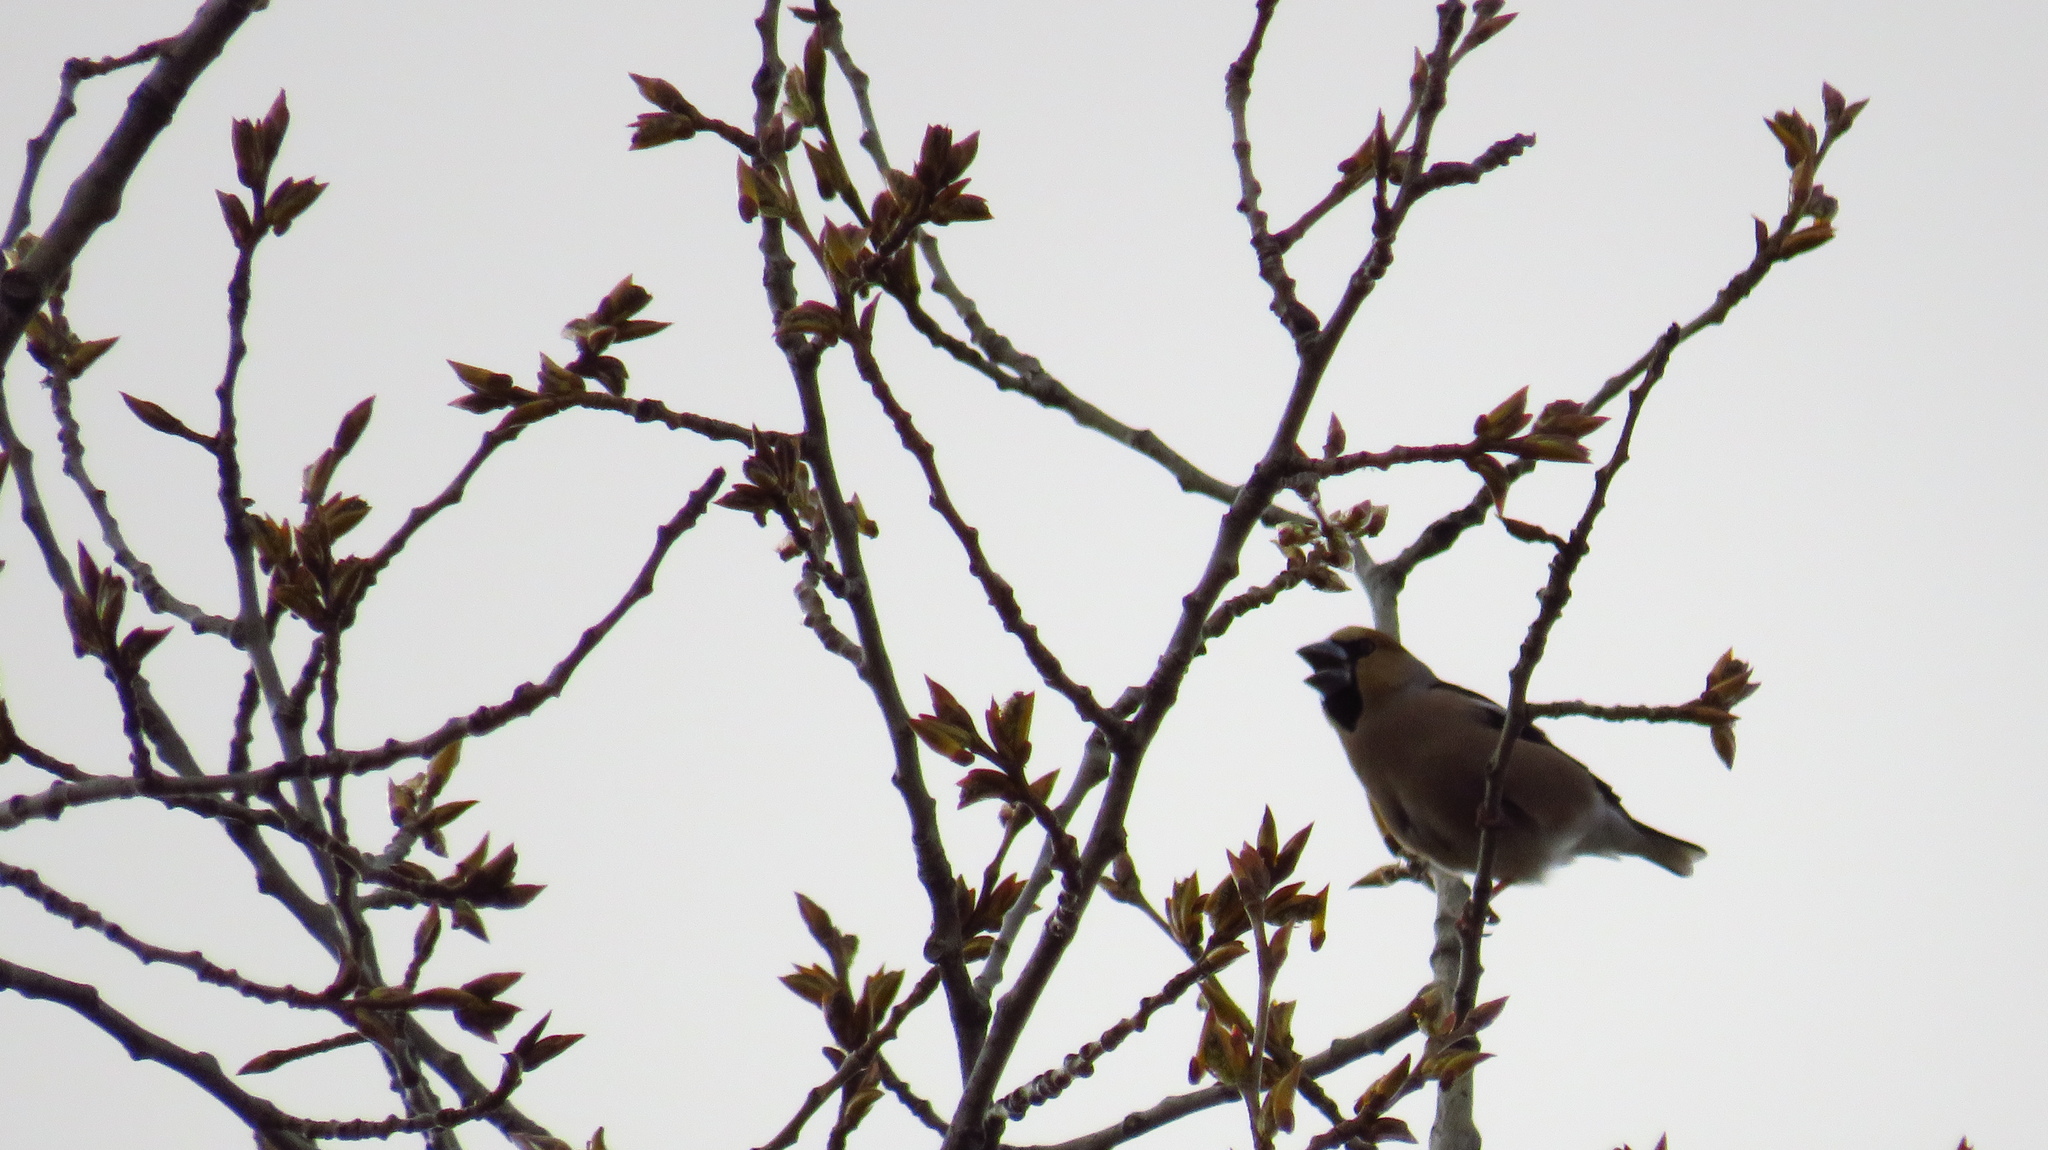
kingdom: Animalia
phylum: Chordata
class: Aves
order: Passeriformes
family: Fringillidae
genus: Coccothraustes
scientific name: Coccothraustes coccothraustes
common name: Hawfinch
